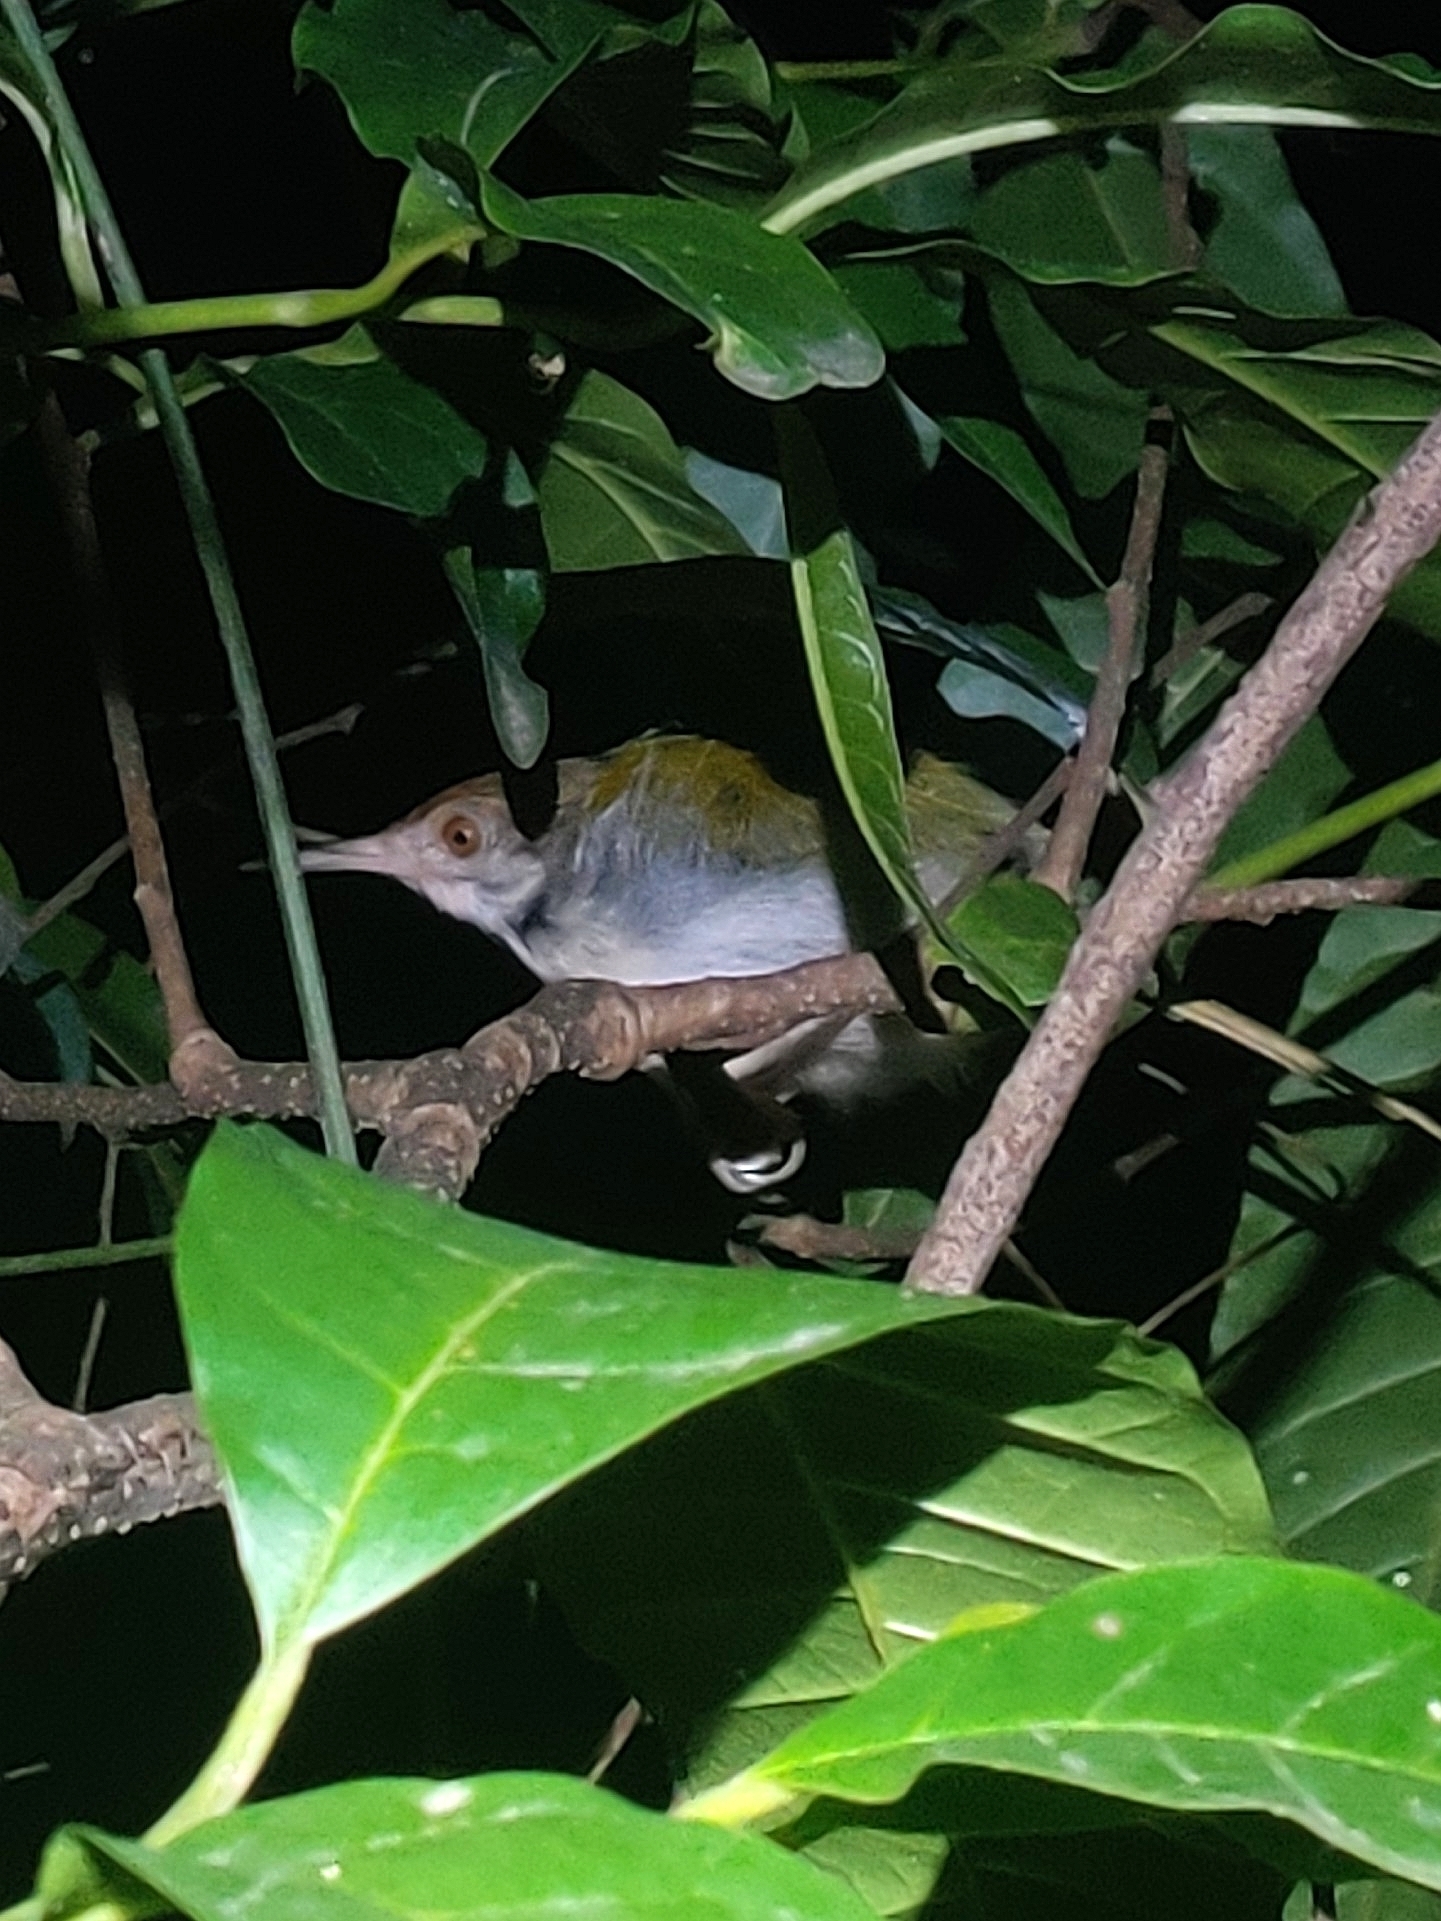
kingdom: Animalia
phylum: Chordata
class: Aves
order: Passeriformes
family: Cisticolidae
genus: Orthotomus
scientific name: Orthotomus sutorius
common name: Common tailorbird
